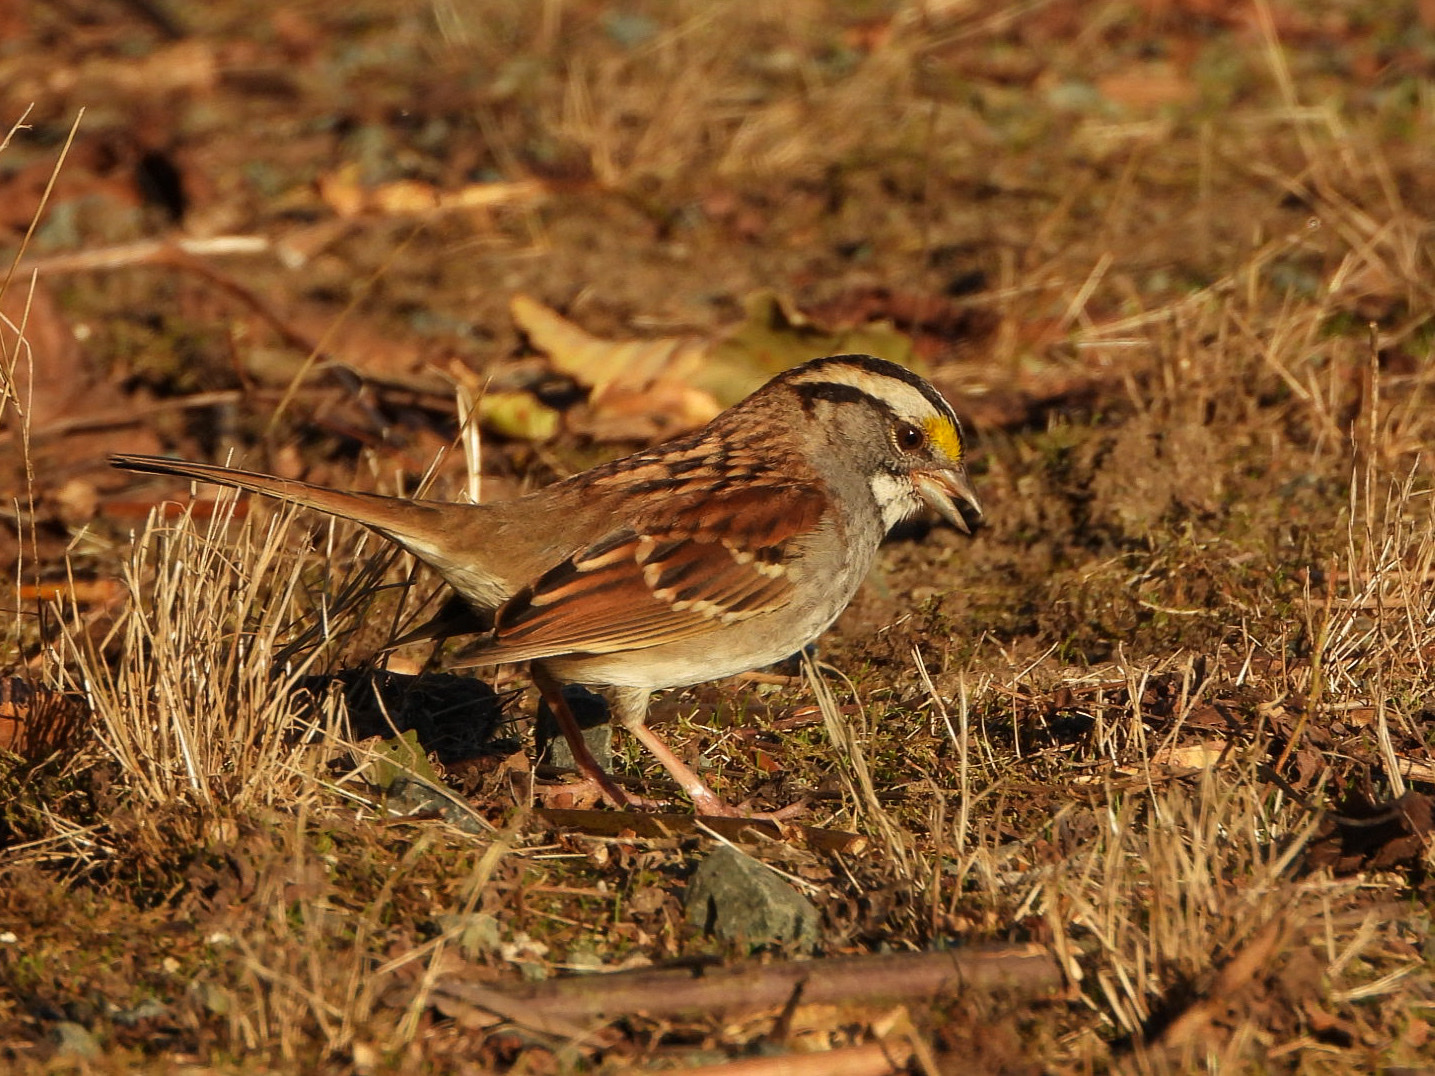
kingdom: Animalia
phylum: Chordata
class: Aves
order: Passeriformes
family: Passerellidae
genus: Zonotrichia
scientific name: Zonotrichia albicollis
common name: White-throated sparrow
